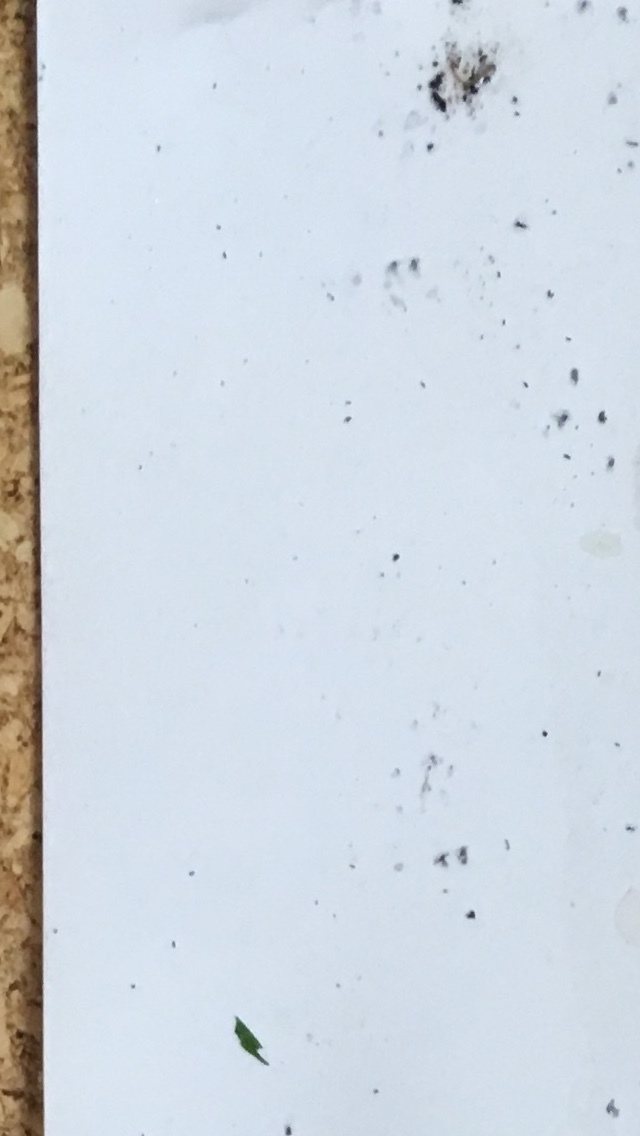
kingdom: Animalia
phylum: Chordata
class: Mammalia
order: Rodentia
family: Muridae
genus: Mus
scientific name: Mus musculus
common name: House mouse
